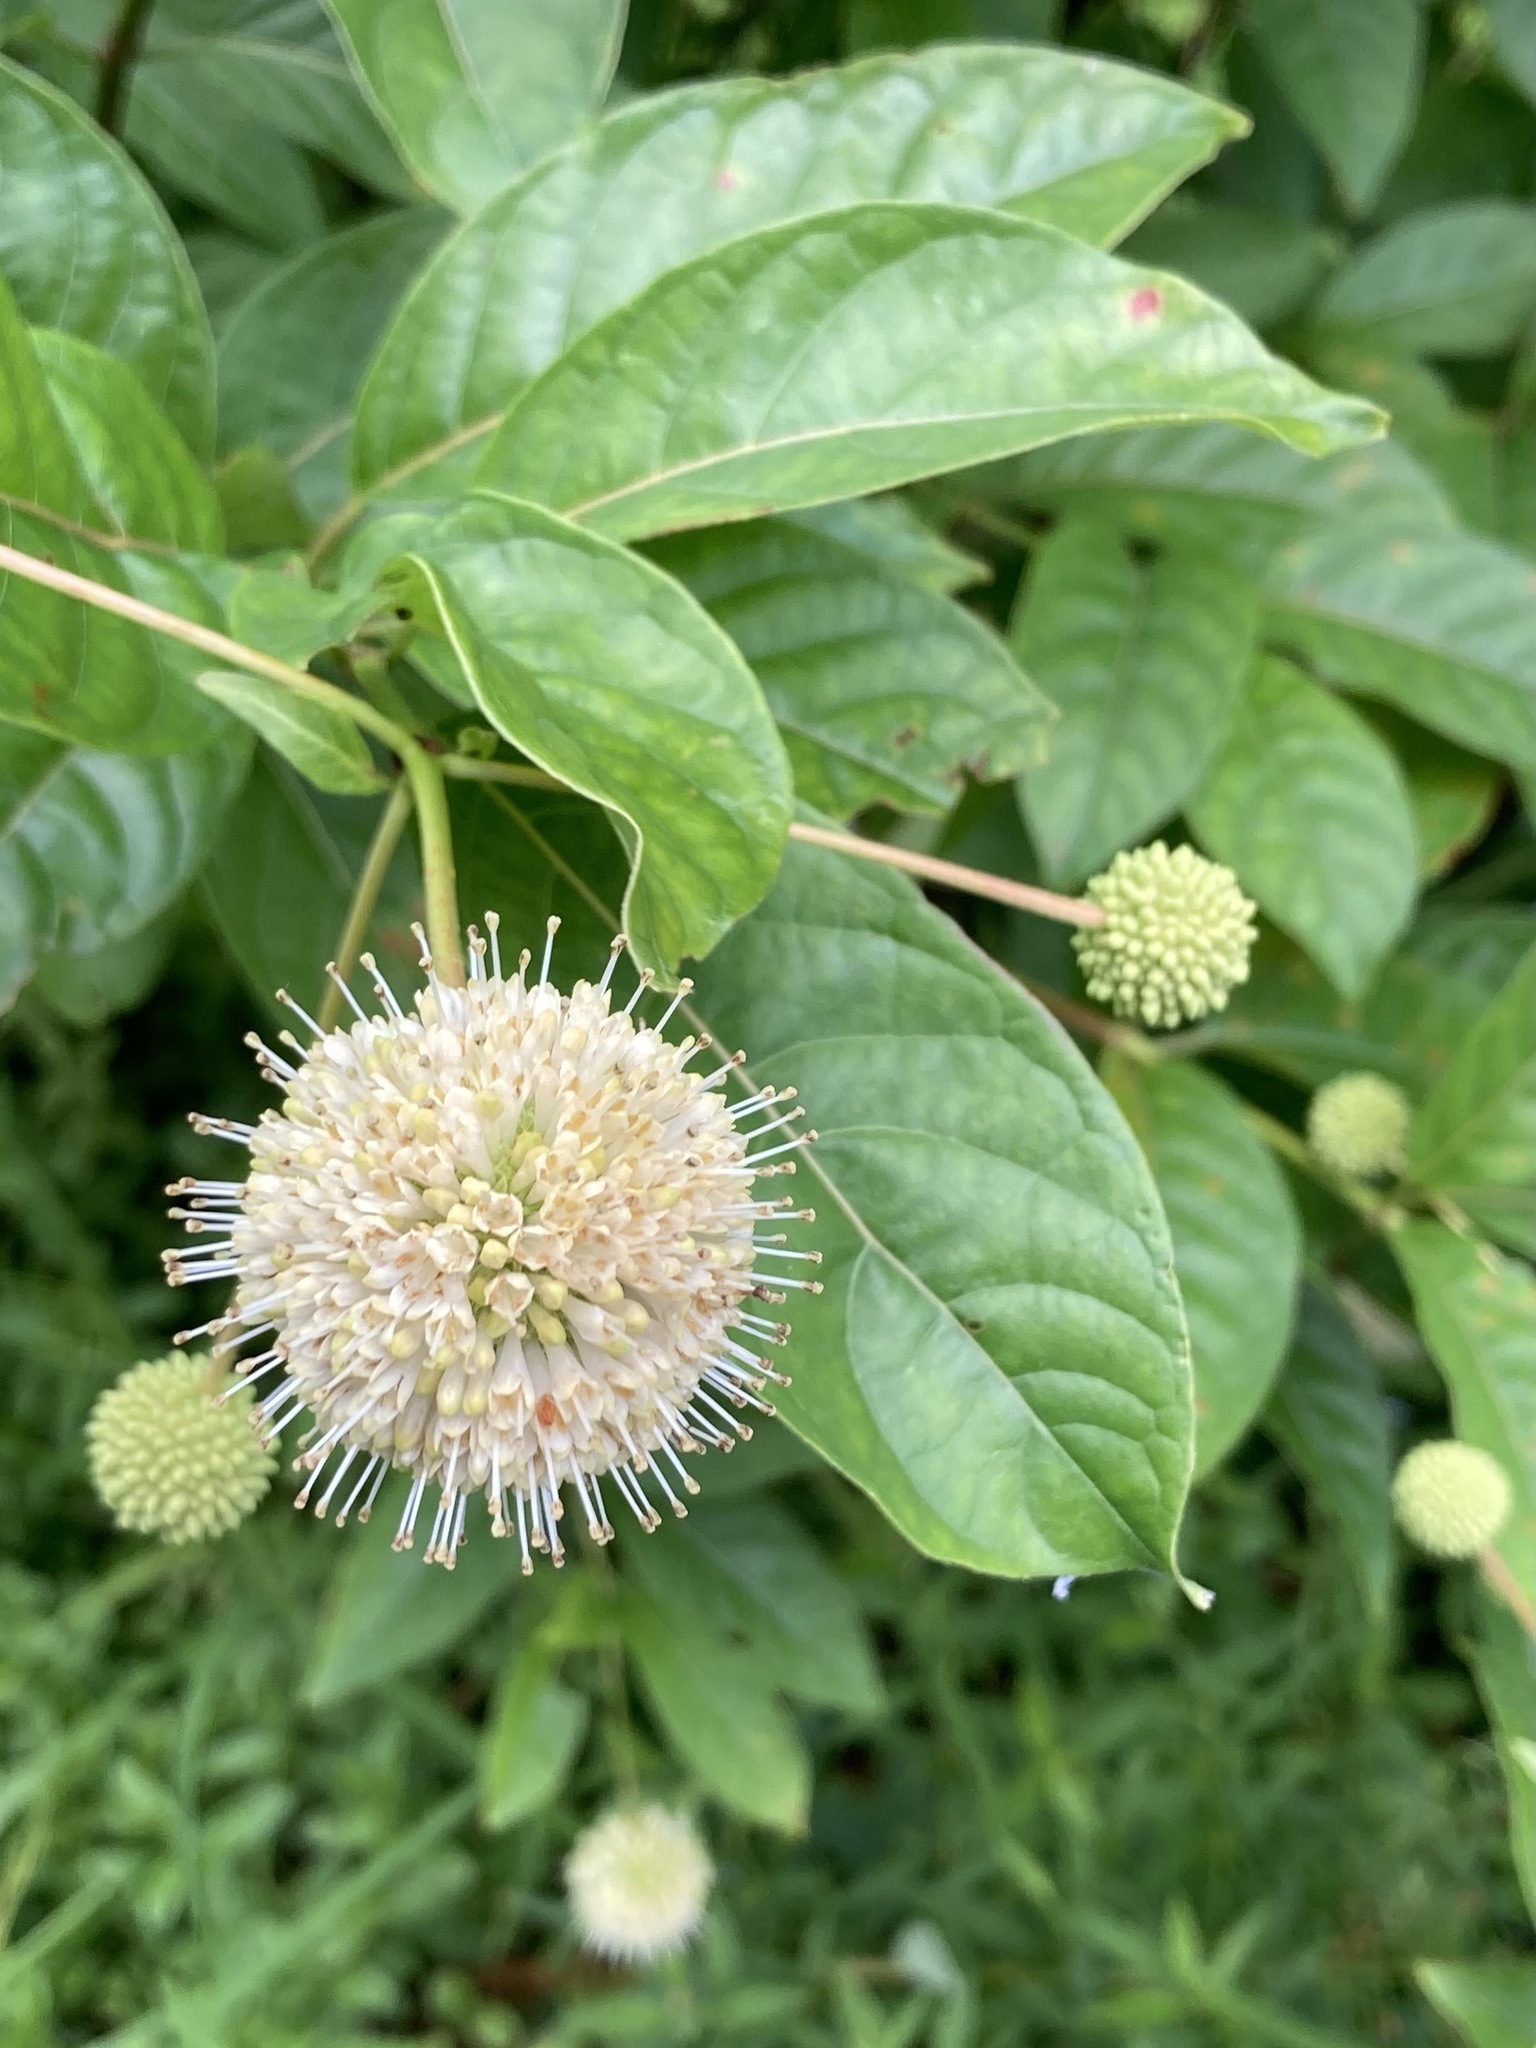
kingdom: Plantae
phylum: Tracheophyta
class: Magnoliopsida
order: Gentianales
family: Rubiaceae
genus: Cephalanthus
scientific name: Cephalanthus occidentalis
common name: Button-willow
